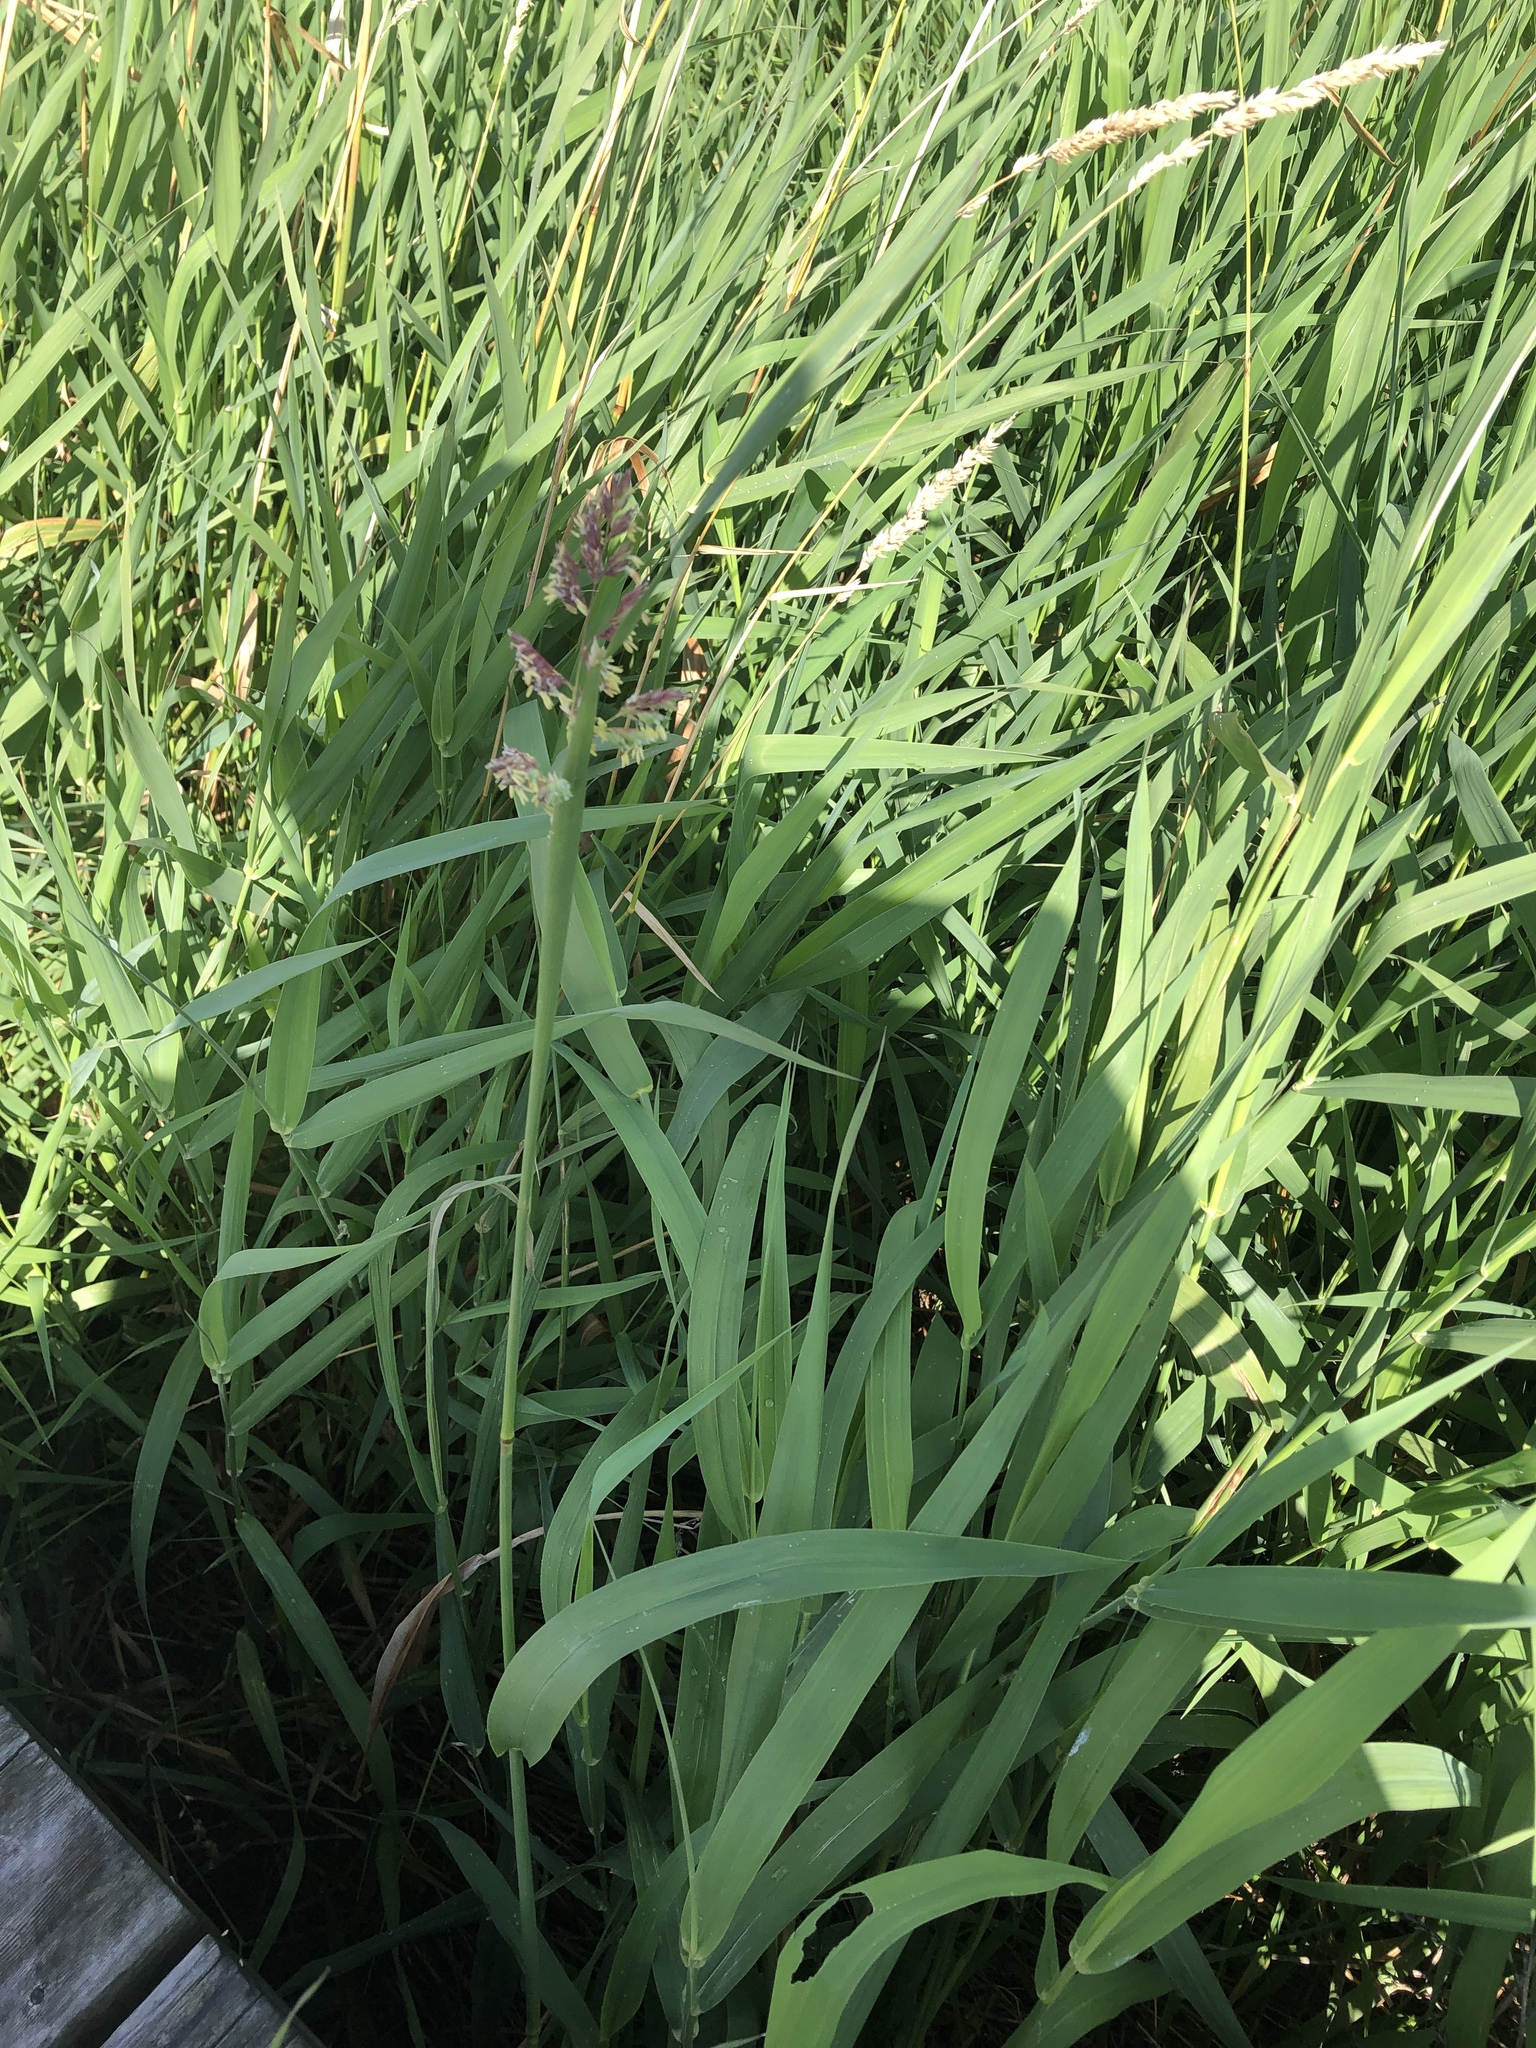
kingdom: Plantae
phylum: Tracheophyta
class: Liliopsida
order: Poales
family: Poaceae
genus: Phalaris
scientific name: Phalaris arundinacea
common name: Reed canary-grass
